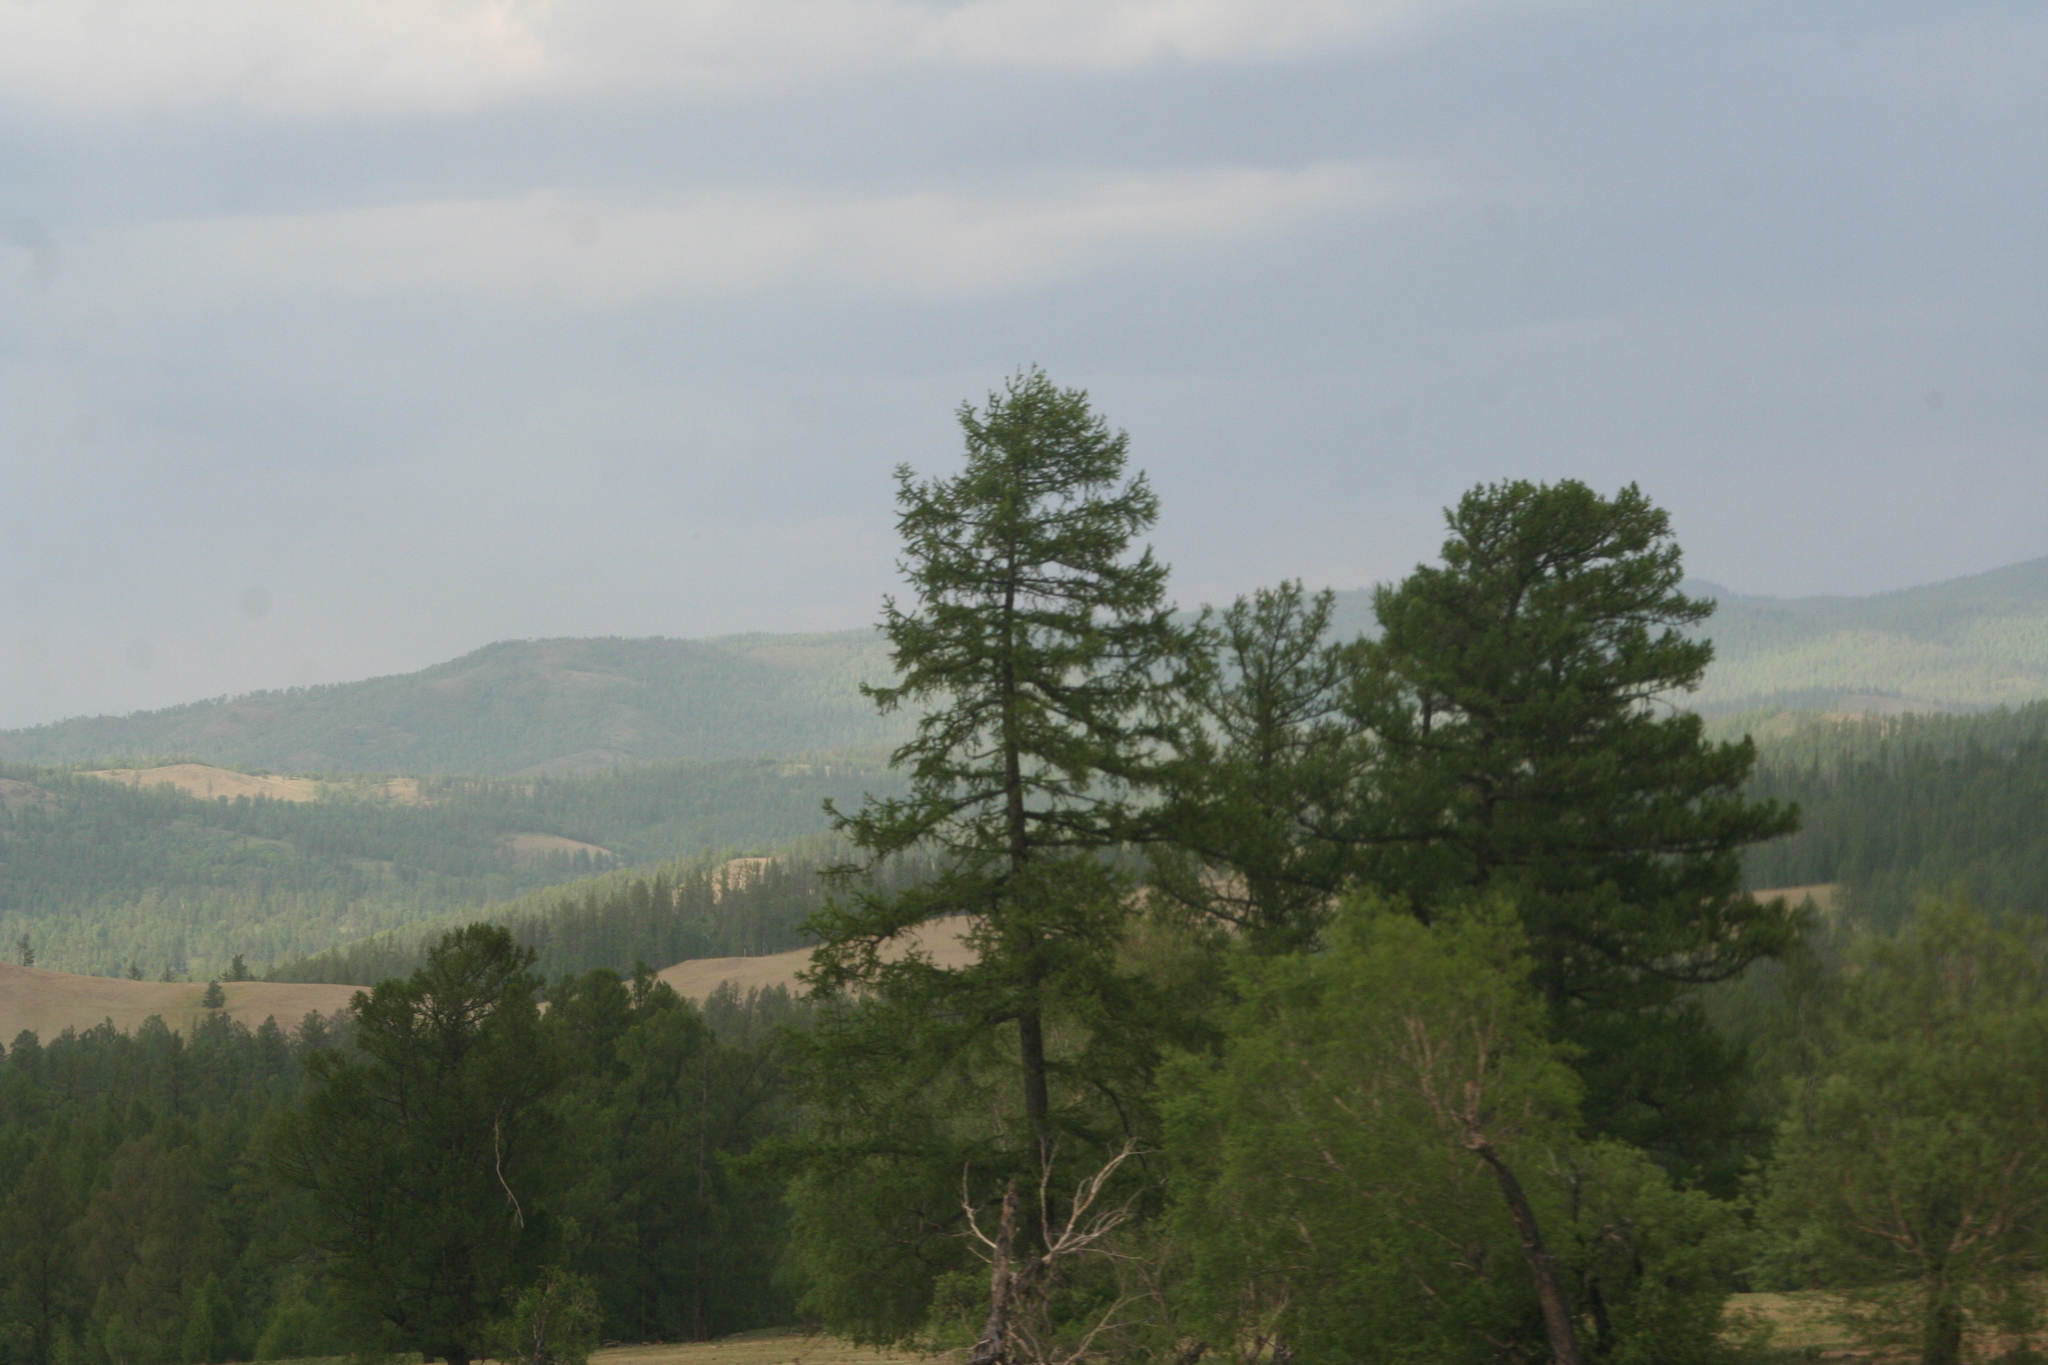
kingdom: Plantae
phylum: Tracheophyta
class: Pinopsida
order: Pinales
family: Pinaceae
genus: Larix
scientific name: Larix sibirica
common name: Siberian larch
